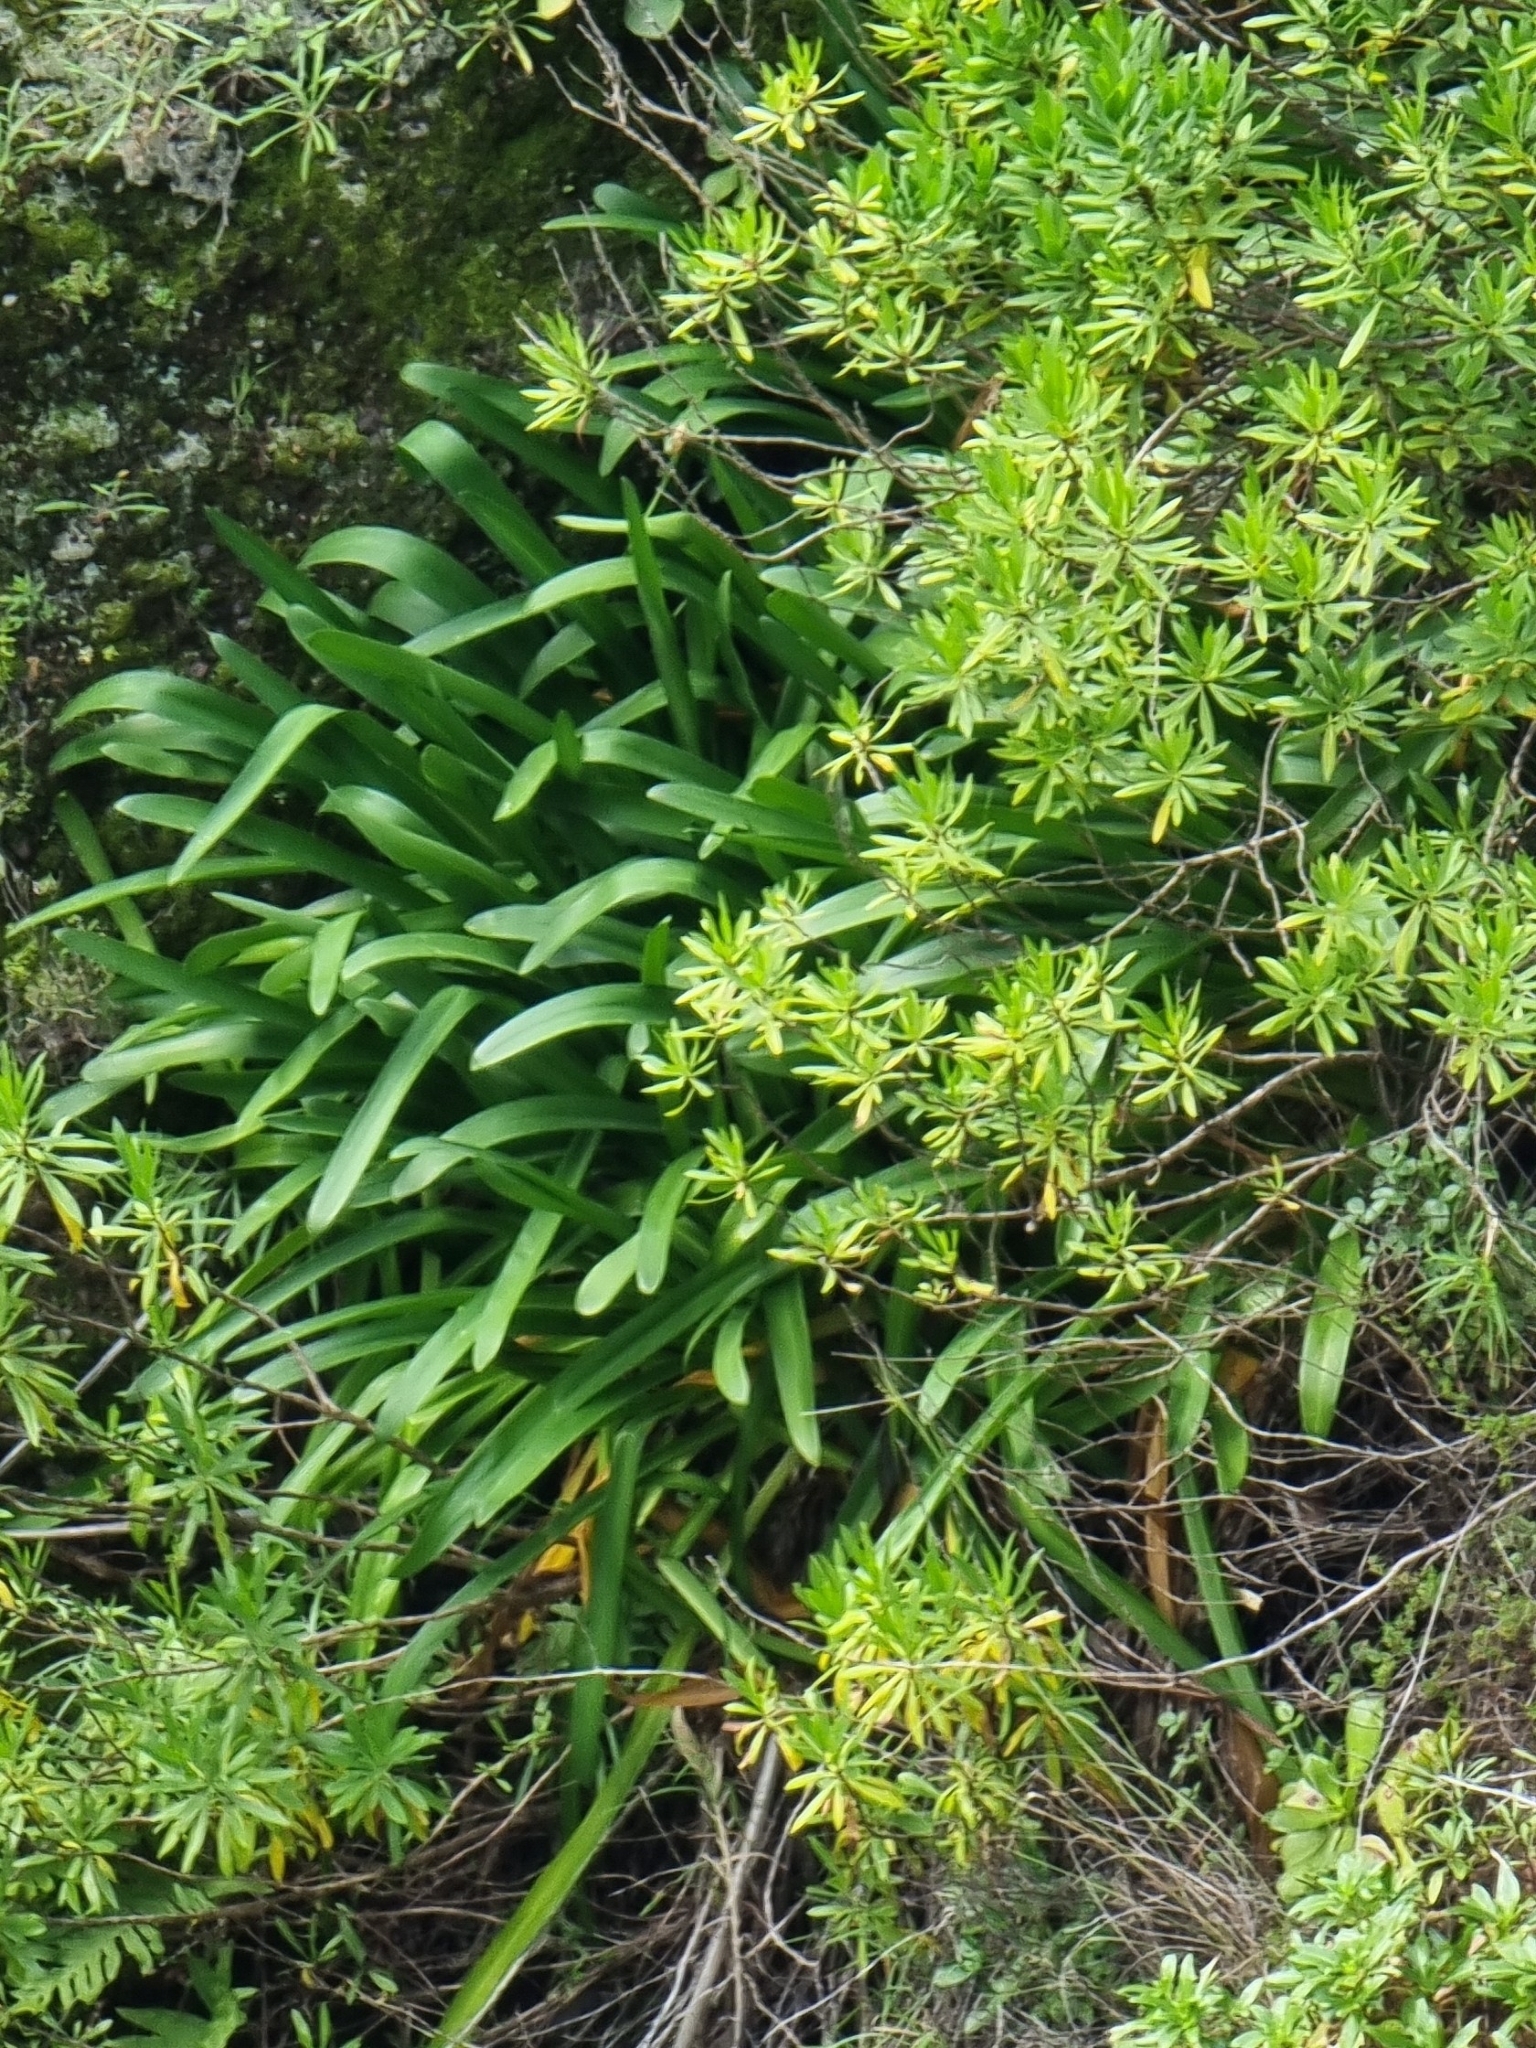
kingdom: Plantae
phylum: Tracheophyta
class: Liliopsida
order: Asparagales
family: Amaryllidaceae
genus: Agapanthus
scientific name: Agapanthus praecox
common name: African-lily
